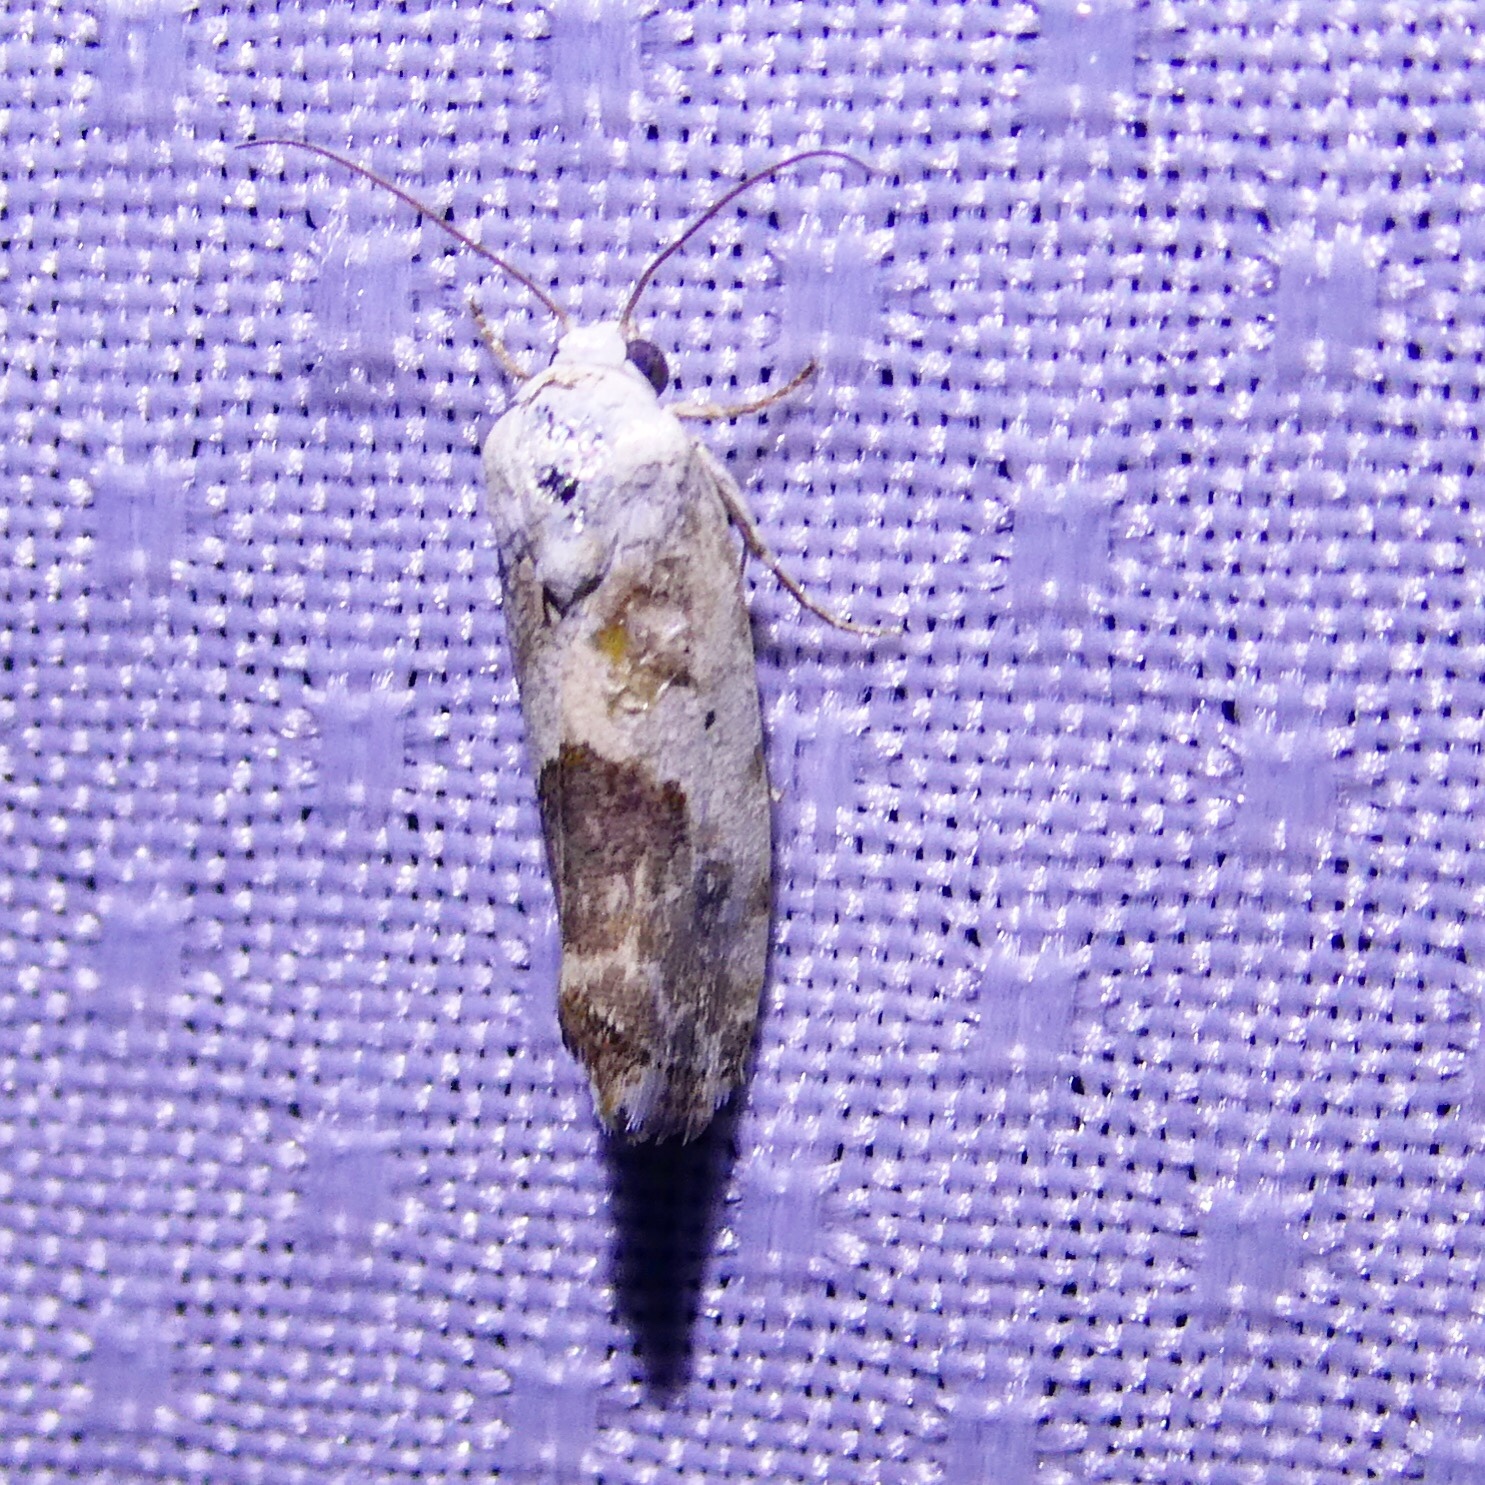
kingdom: Animalia
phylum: Arthropoda
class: Insecta
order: Lepidoptera
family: Noctuidae
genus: Acontia
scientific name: Acontia candefacta
